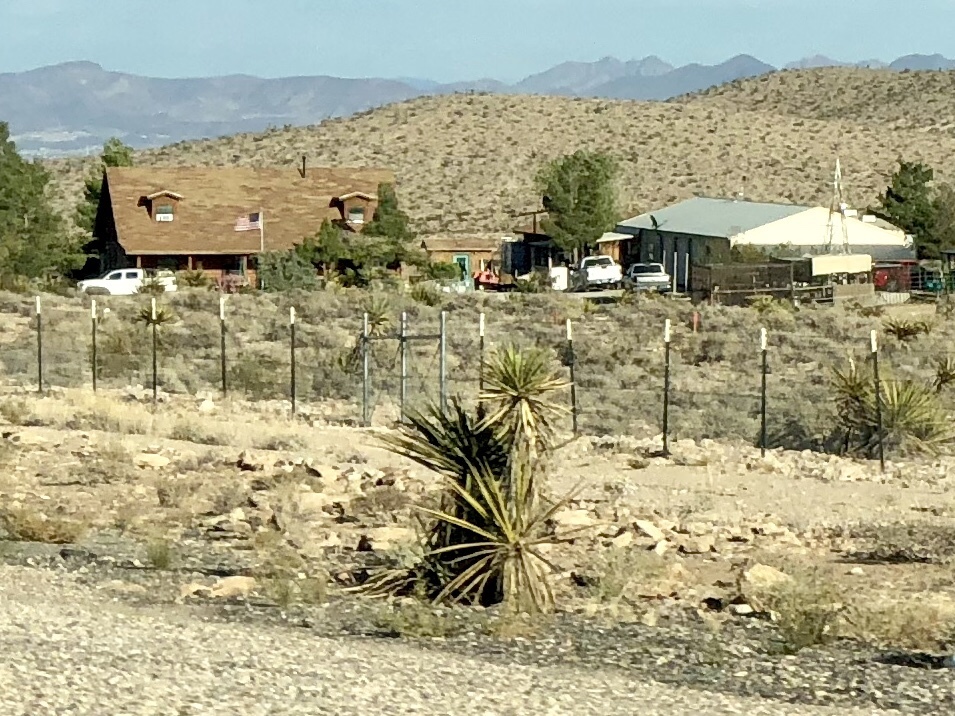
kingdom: Plantae
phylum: Tracheophyta
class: Liliopsida
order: Asparagales
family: Asparagaceae
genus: Yucca
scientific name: Yucca schidigera
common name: Mojave yucca
